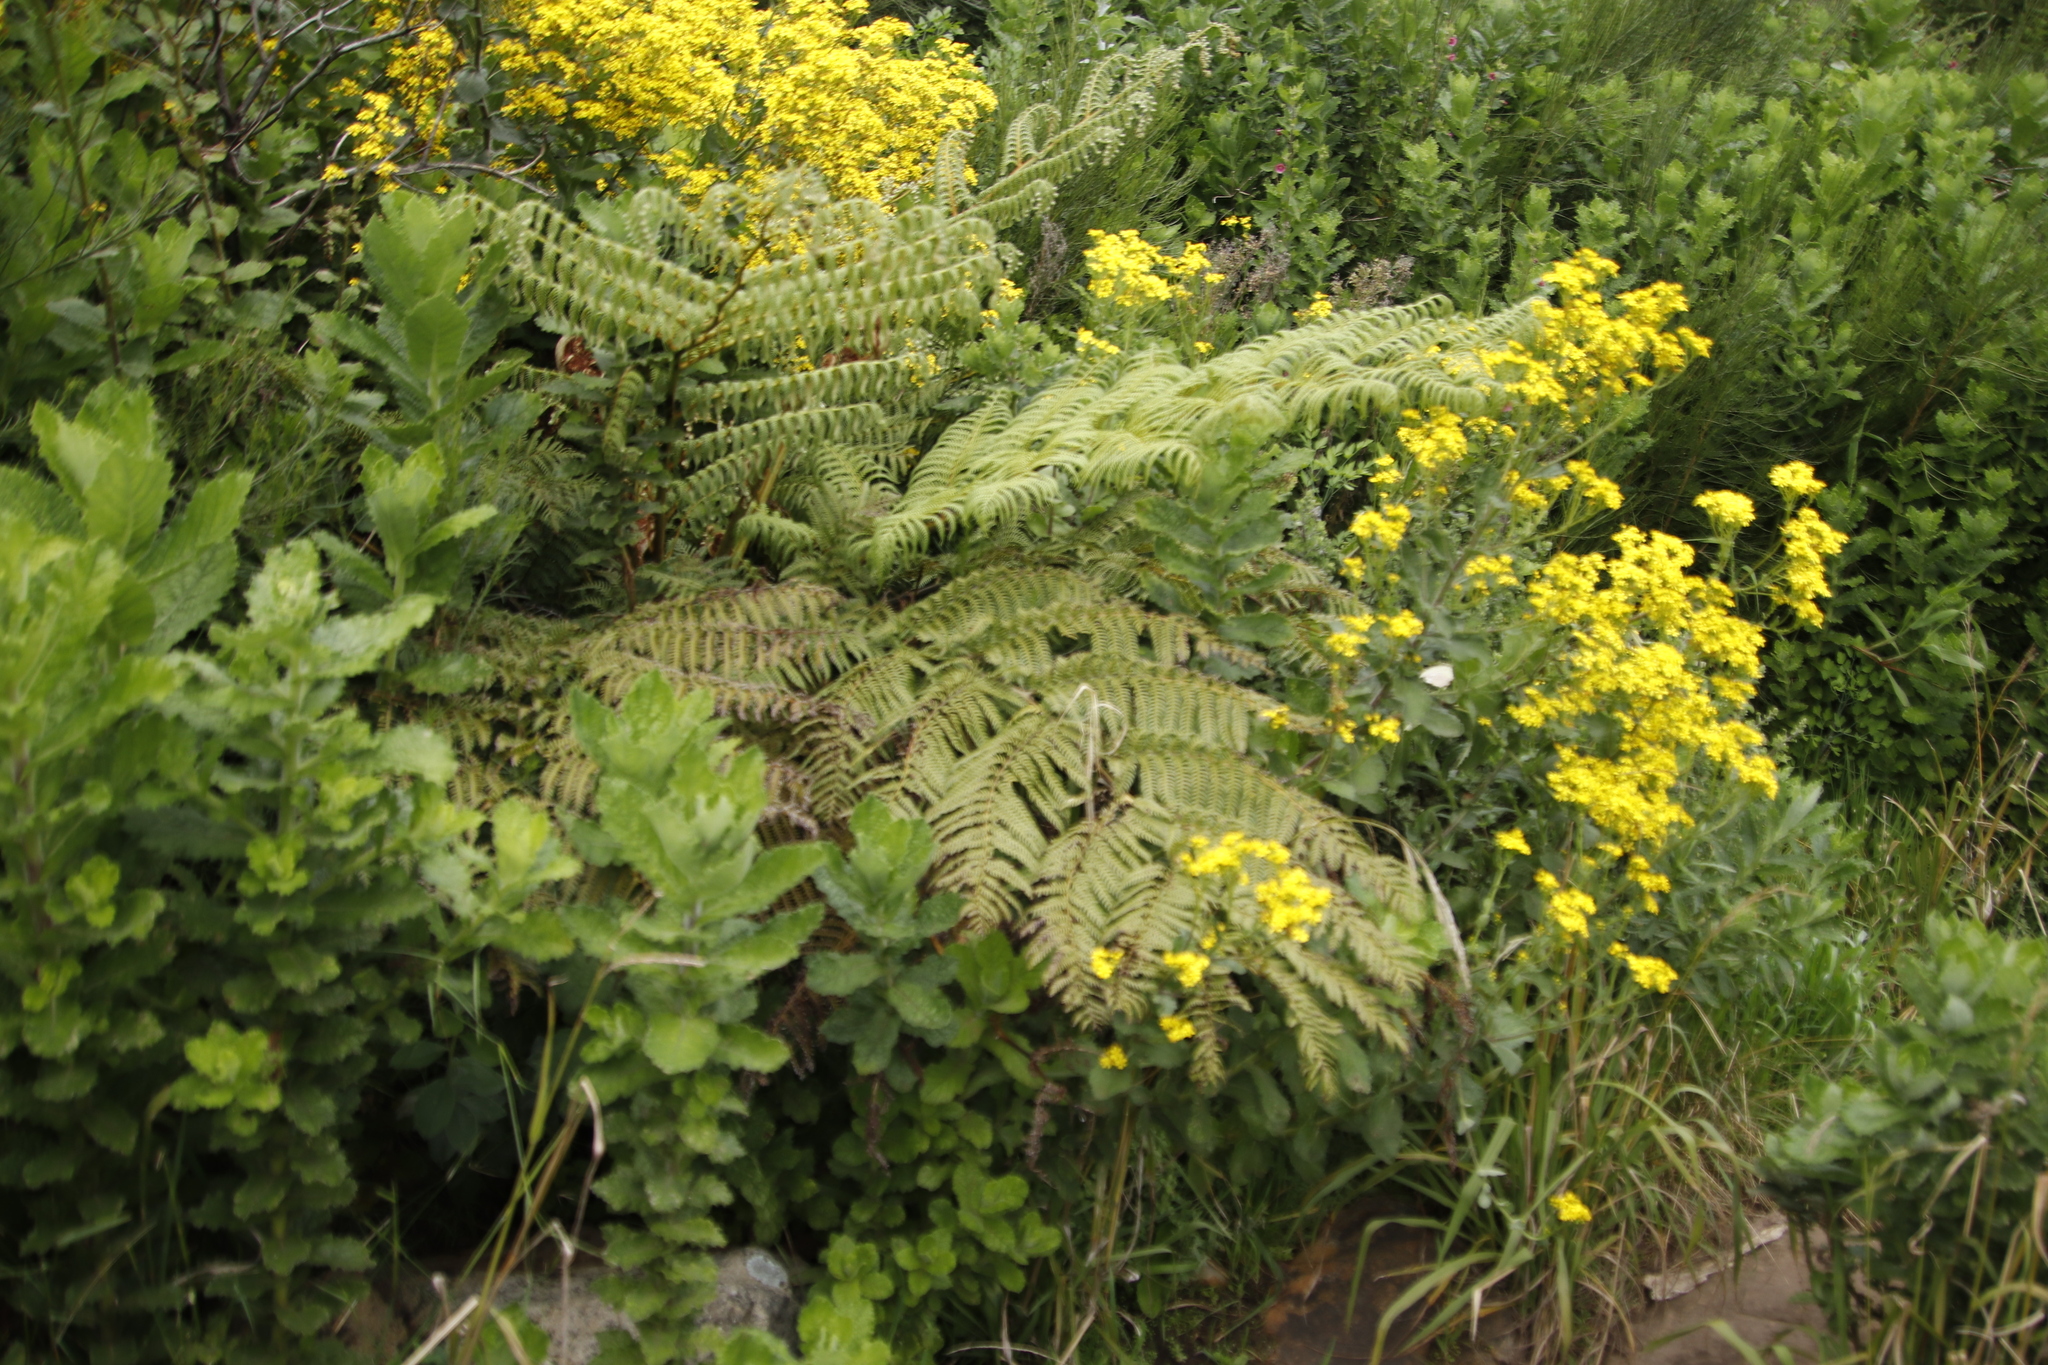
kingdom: Plantae
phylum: Tracheophyta
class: Polypodiopsida
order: Cyatheales
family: Cyatheaceae
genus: Sphaeropteris
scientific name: Sphaeropteris cooperi
